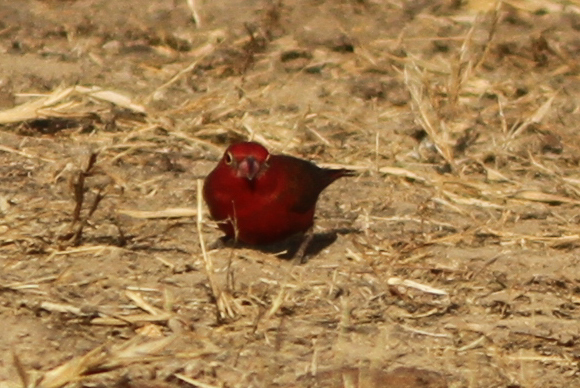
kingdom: Animalia
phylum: Chordata
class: Aves
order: Passeriformes
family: Estrildidae
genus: Lagonosticta
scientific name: Lagonosticta senegala
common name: Red-billed firefinch
